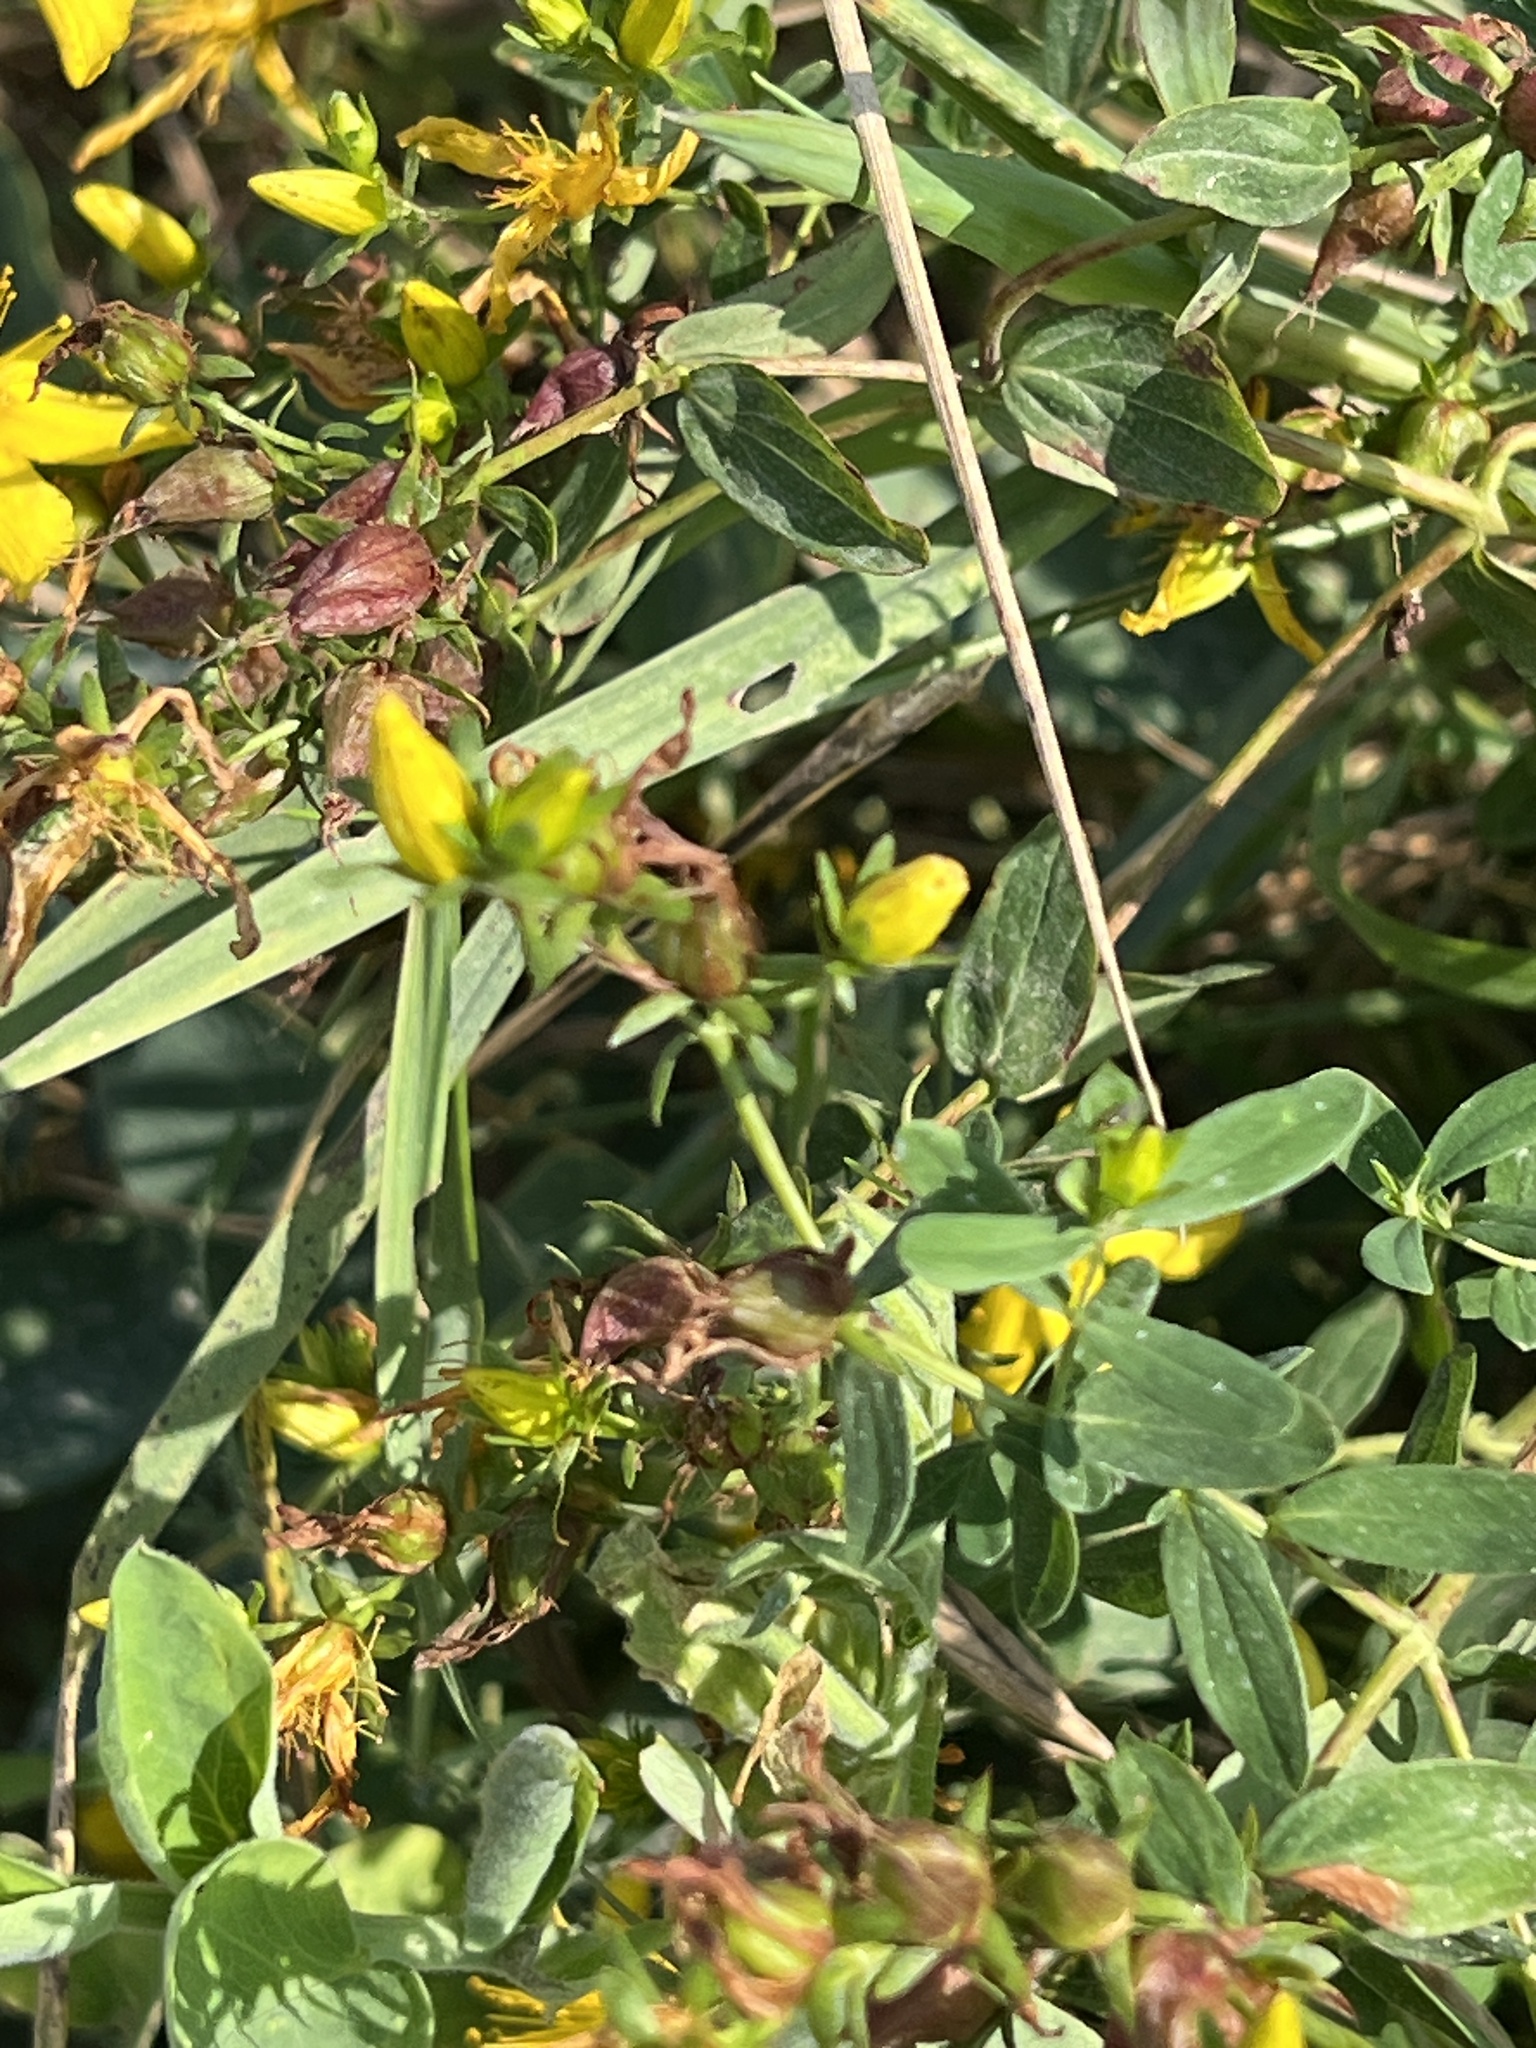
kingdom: Plantae
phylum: Tracheophyta
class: Magnoliopsida
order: Malpighiales
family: Hypericaceae
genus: Hypericum
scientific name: Hypericum perforatum
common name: Common st. johnswort
